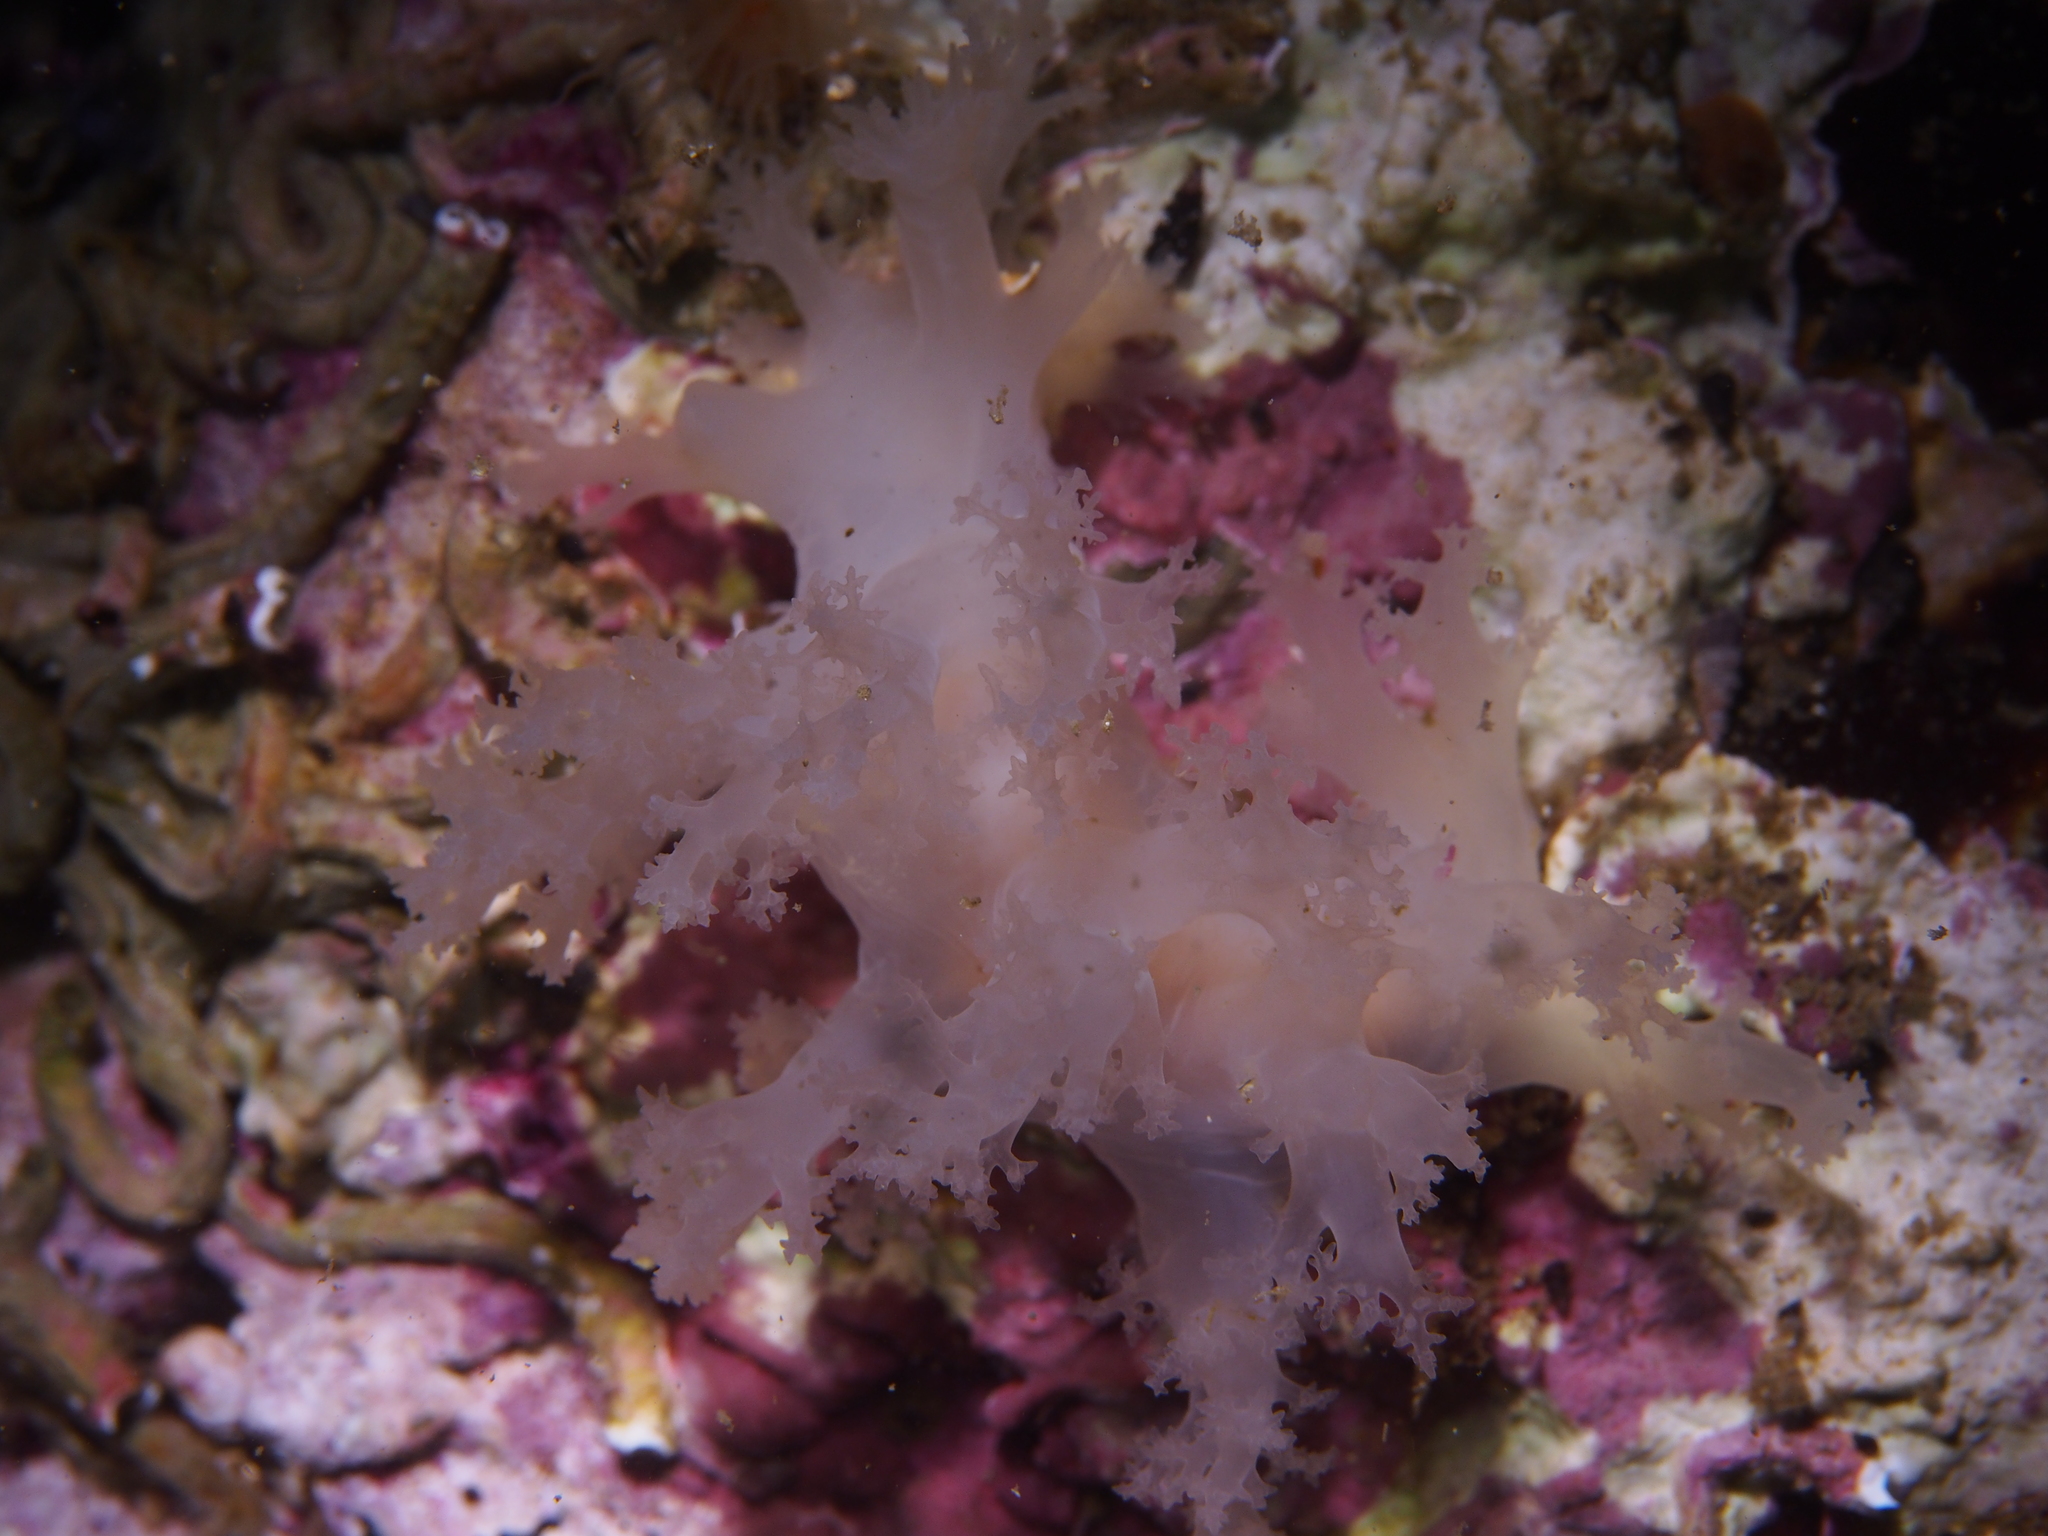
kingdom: Animalia
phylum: Mollusca
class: Gastropoda
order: Nudibranchia
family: Dendronotidae
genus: Dendronotus
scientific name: Dendronotus lacteus
